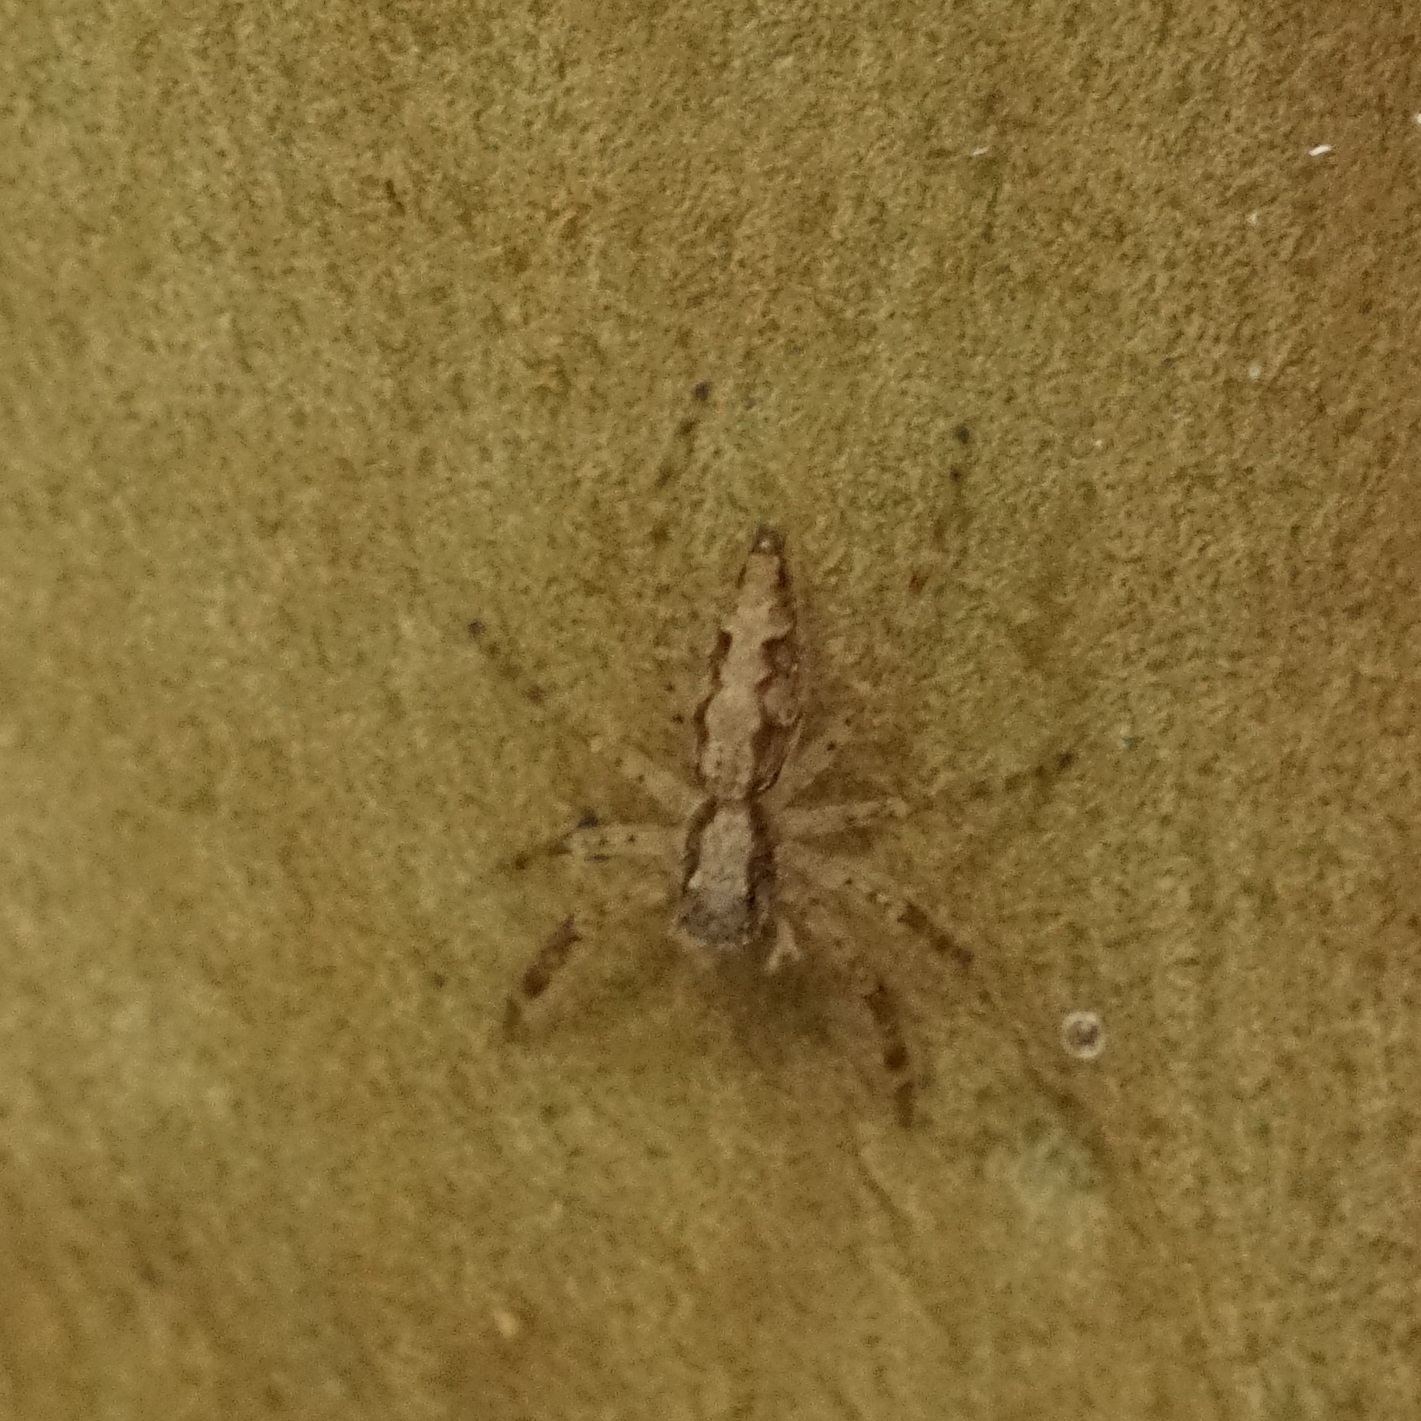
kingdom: Animalia
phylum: Arthropoda
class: Arachnida
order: Araneae
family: Salticidae
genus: Helpis
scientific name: Helpis minitabunda
